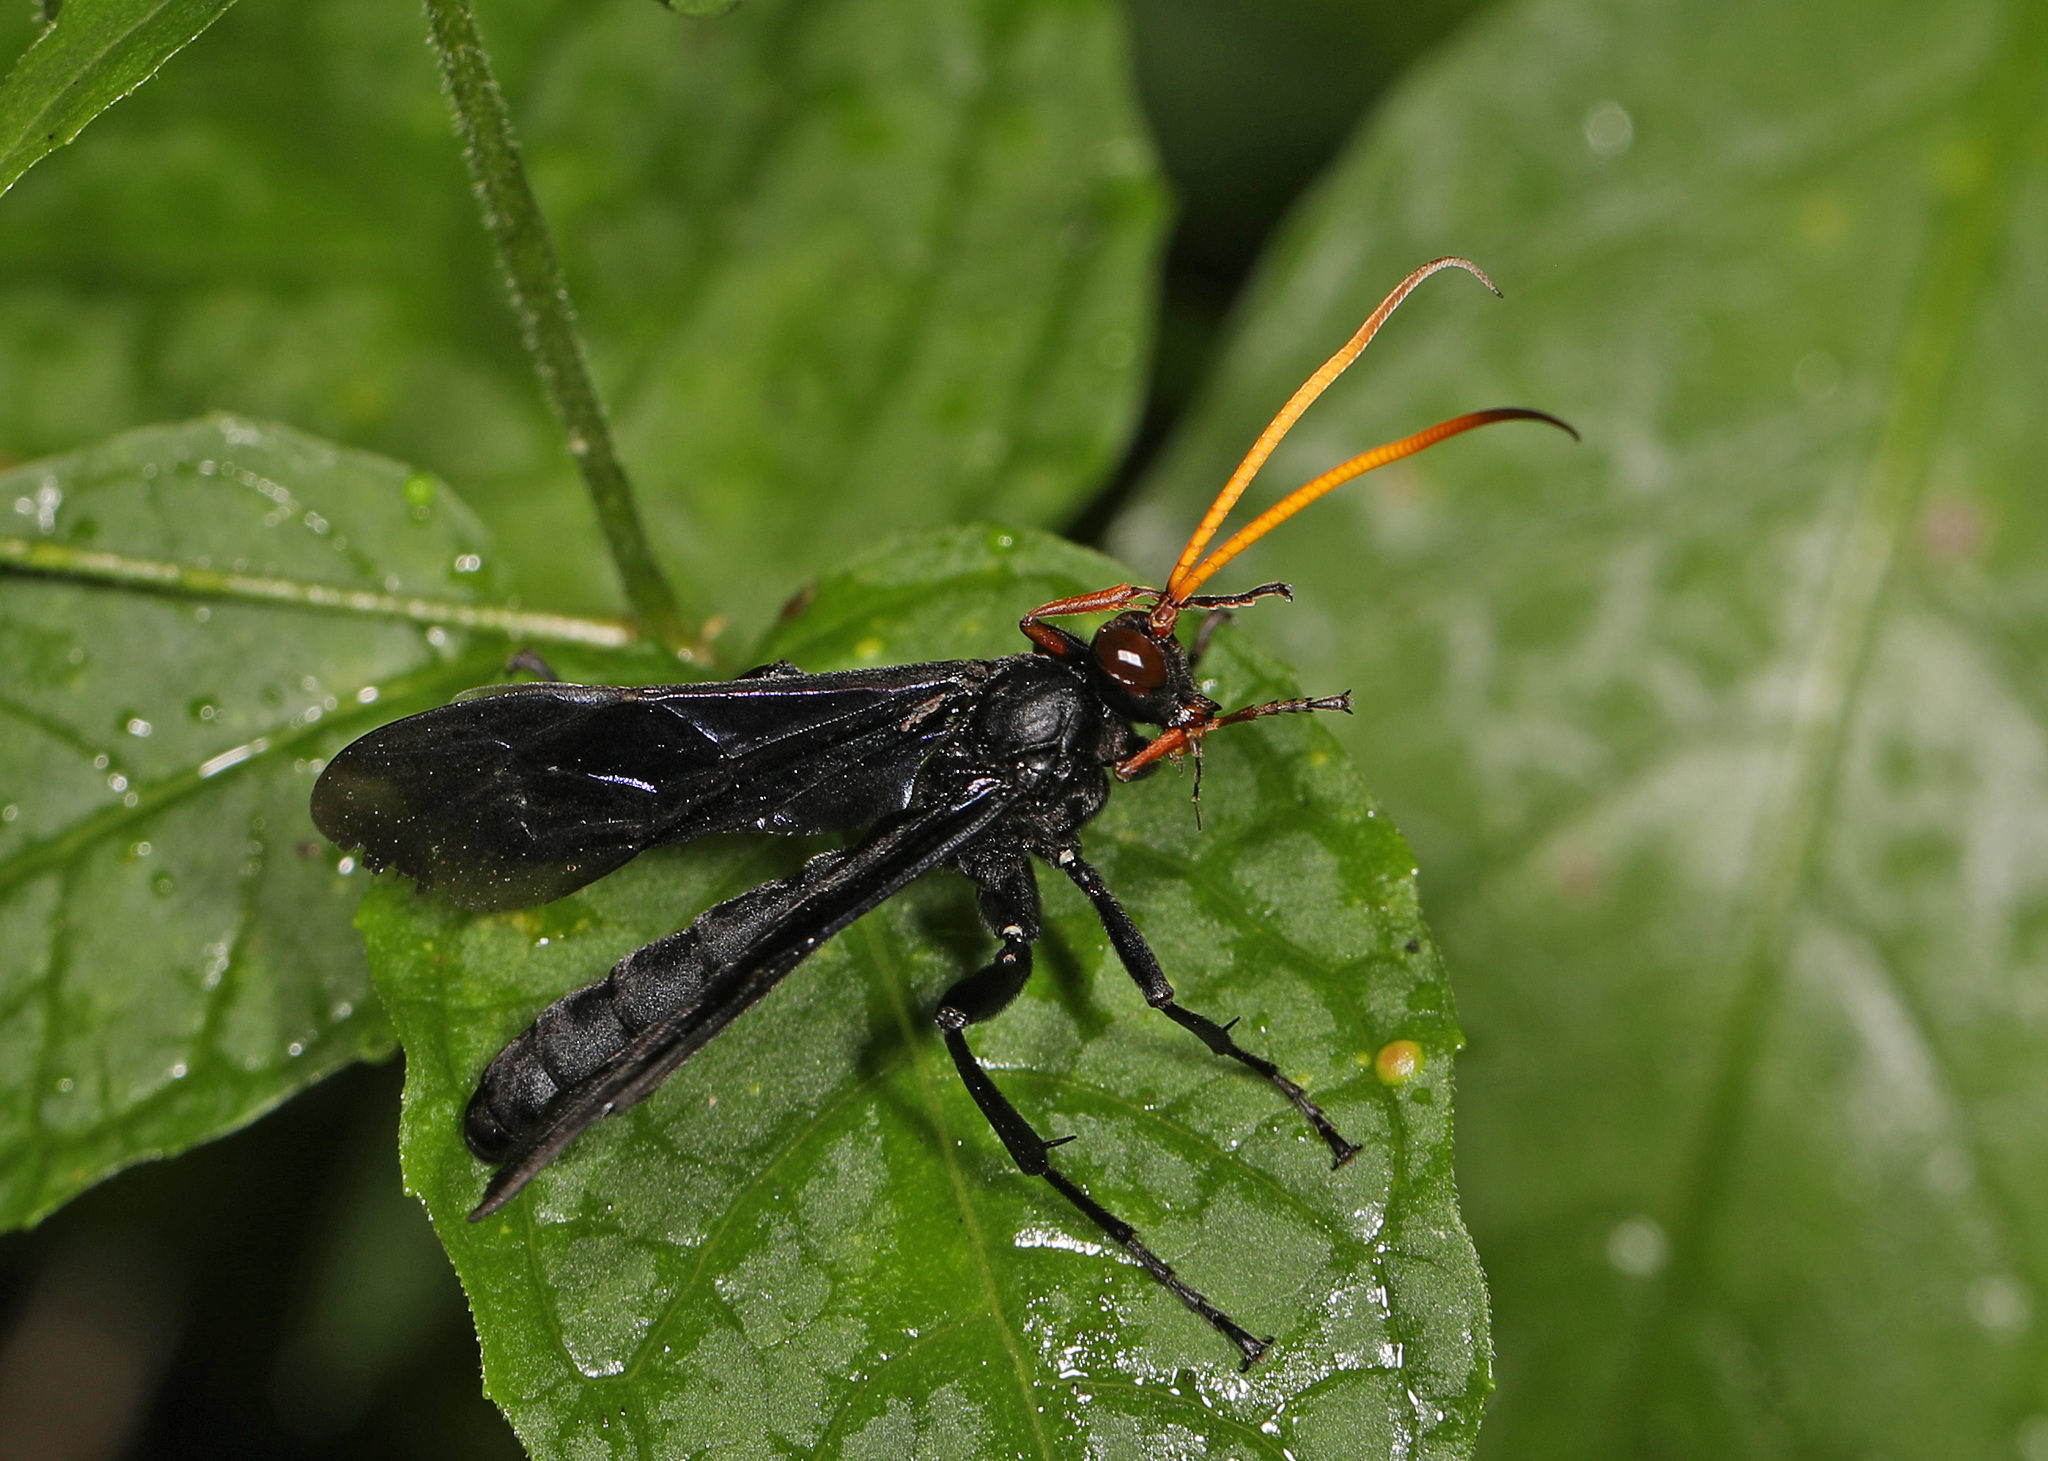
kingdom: Animalia
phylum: Arthropoda
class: Insecta
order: Hymenoptera
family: Ichneumonidae
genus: Gnamptopelta
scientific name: Gnamptopelta obsidianator
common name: Bent-shielded besieger wasp
